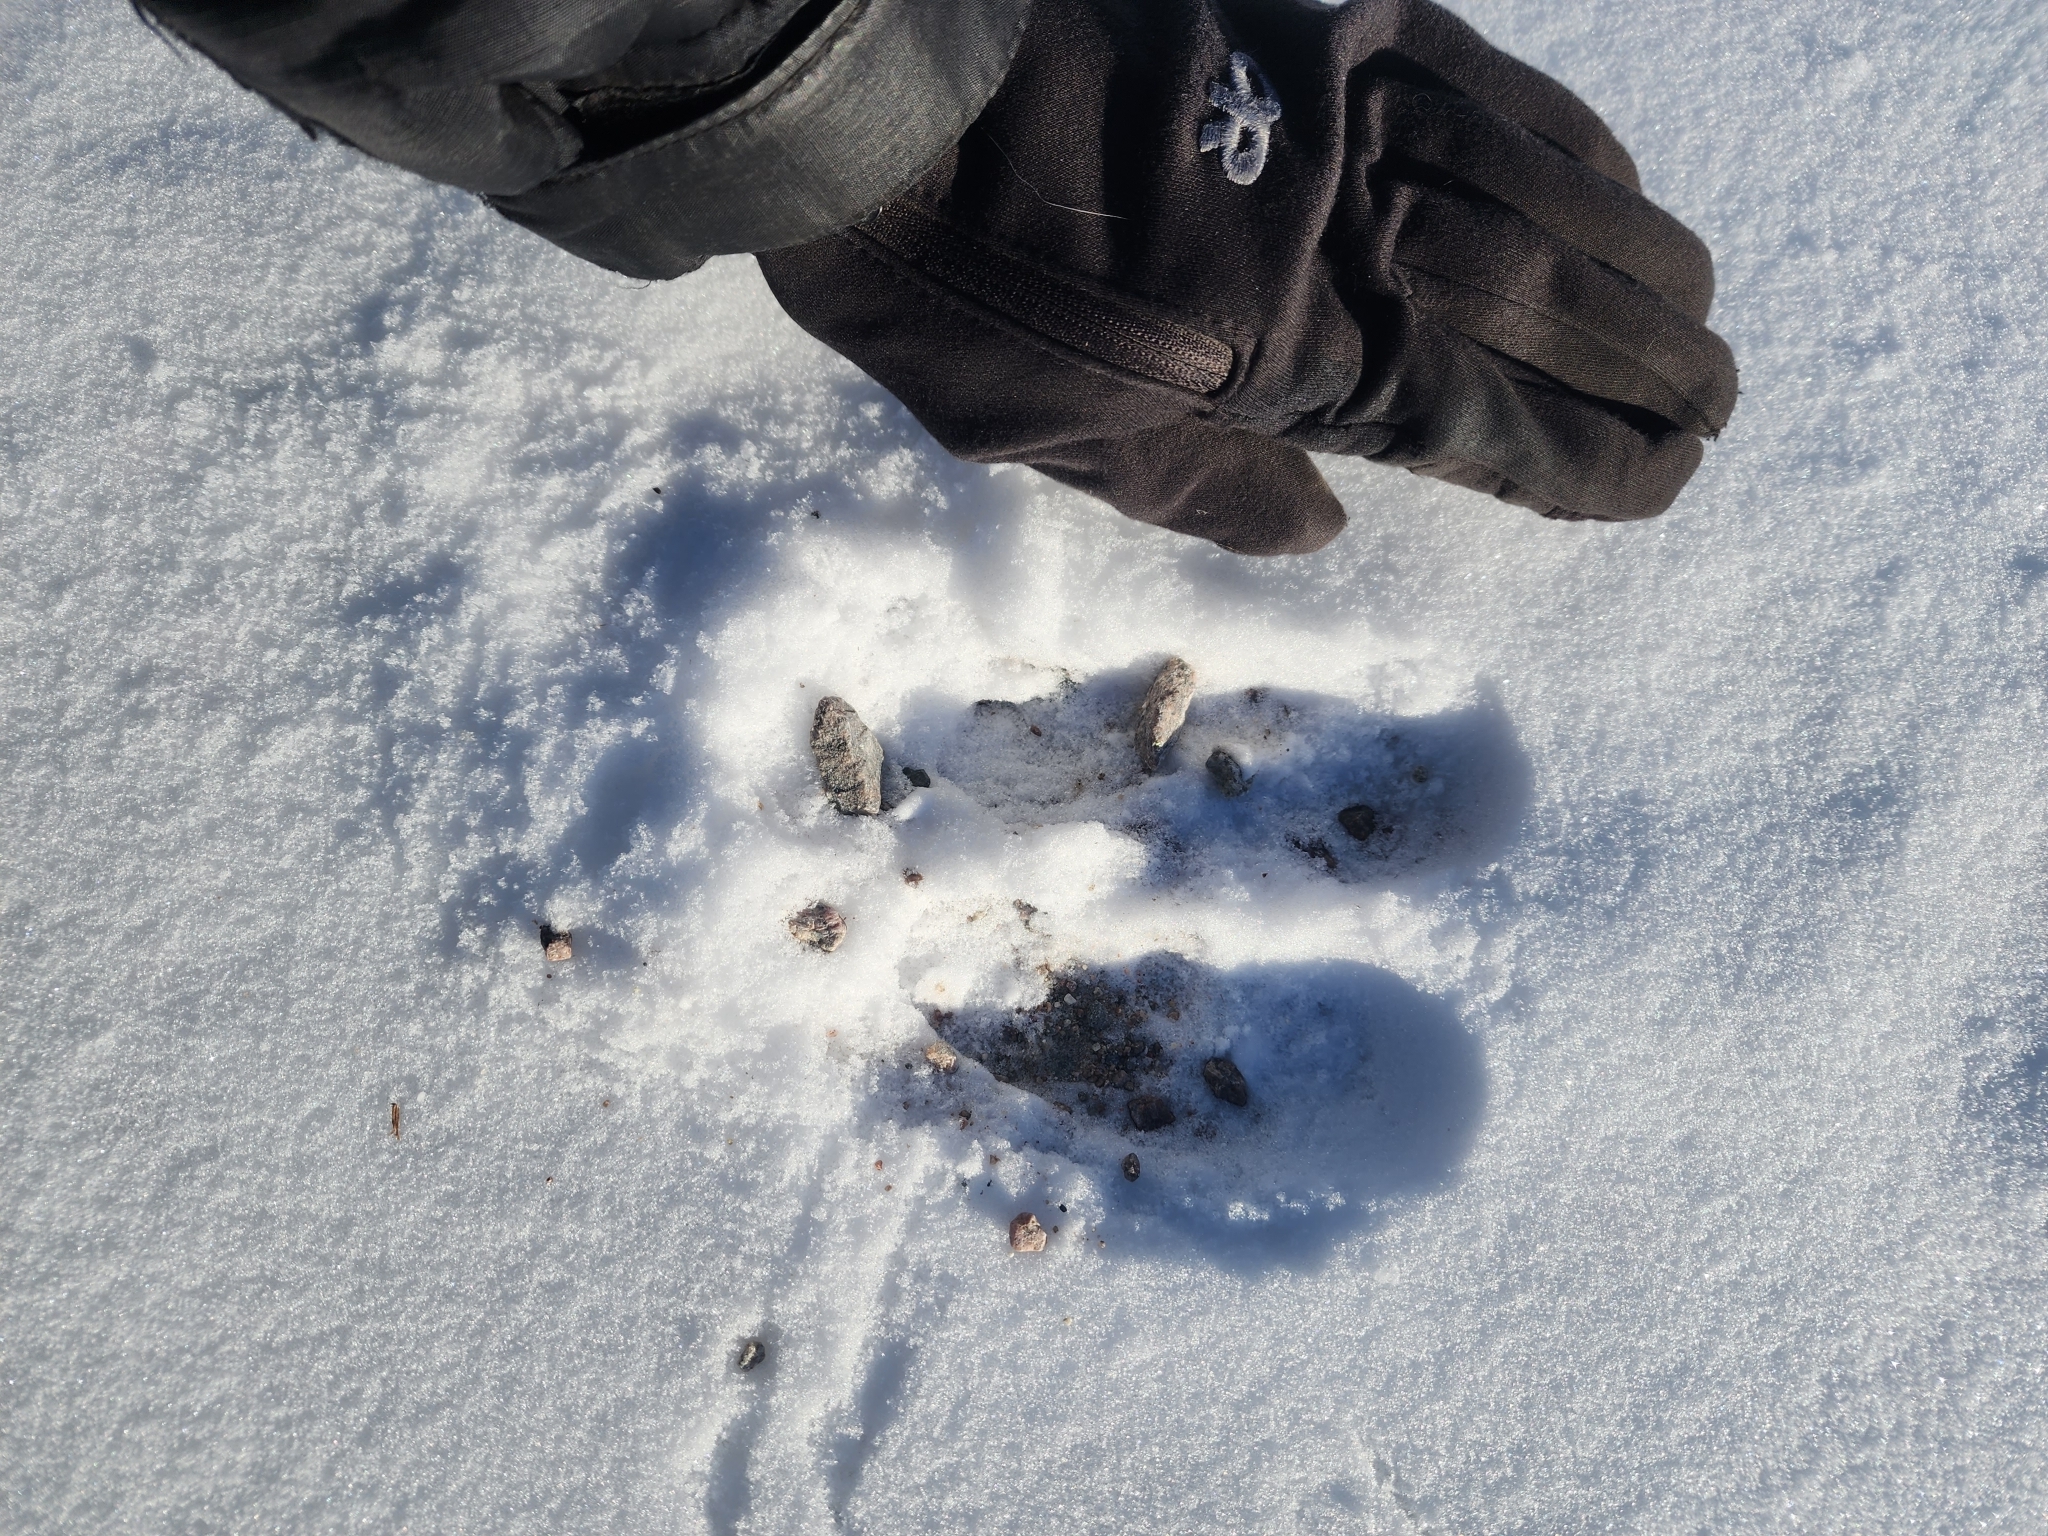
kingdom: Animalia
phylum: Chordata
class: Mammalia
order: Artiodactyla
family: Cervidae
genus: Alces
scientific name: Alces alces
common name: Moose
